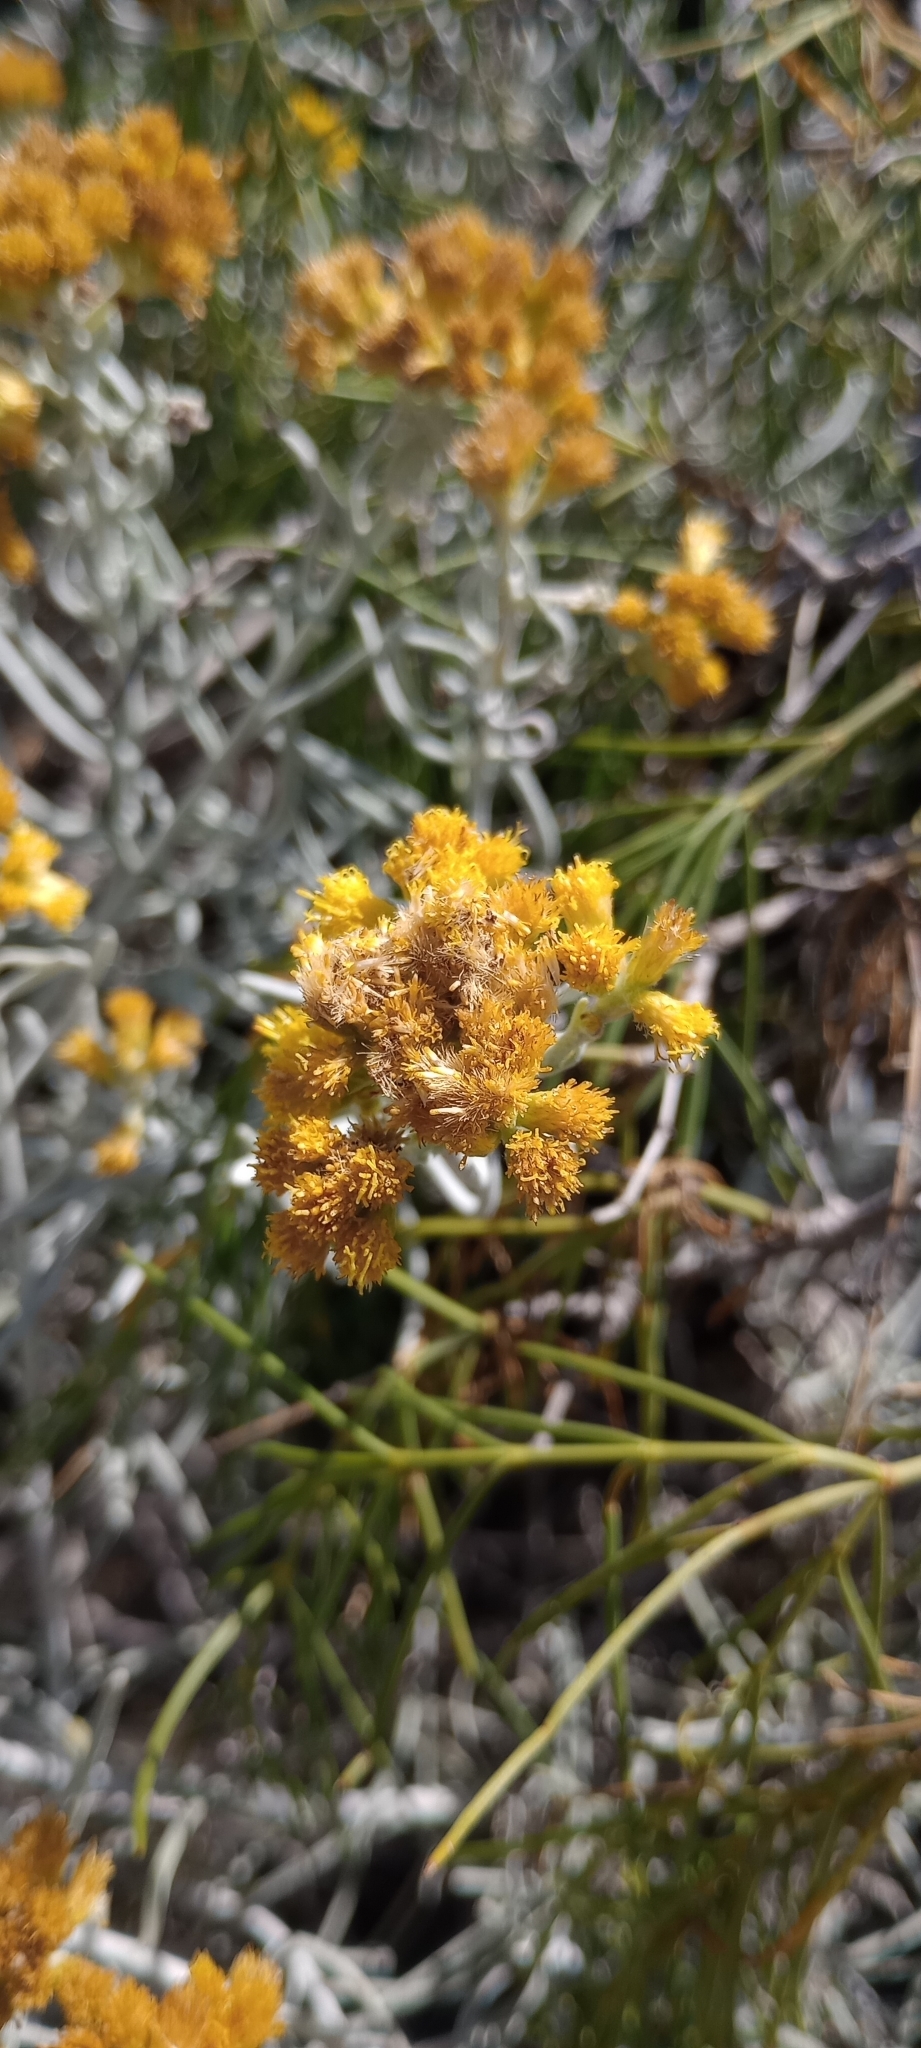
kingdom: Plantae
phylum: Tracheophyta
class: Magnoliopsida
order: Asterales
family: Asteraceae
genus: Schizogyne
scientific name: Schizogyne sericea
